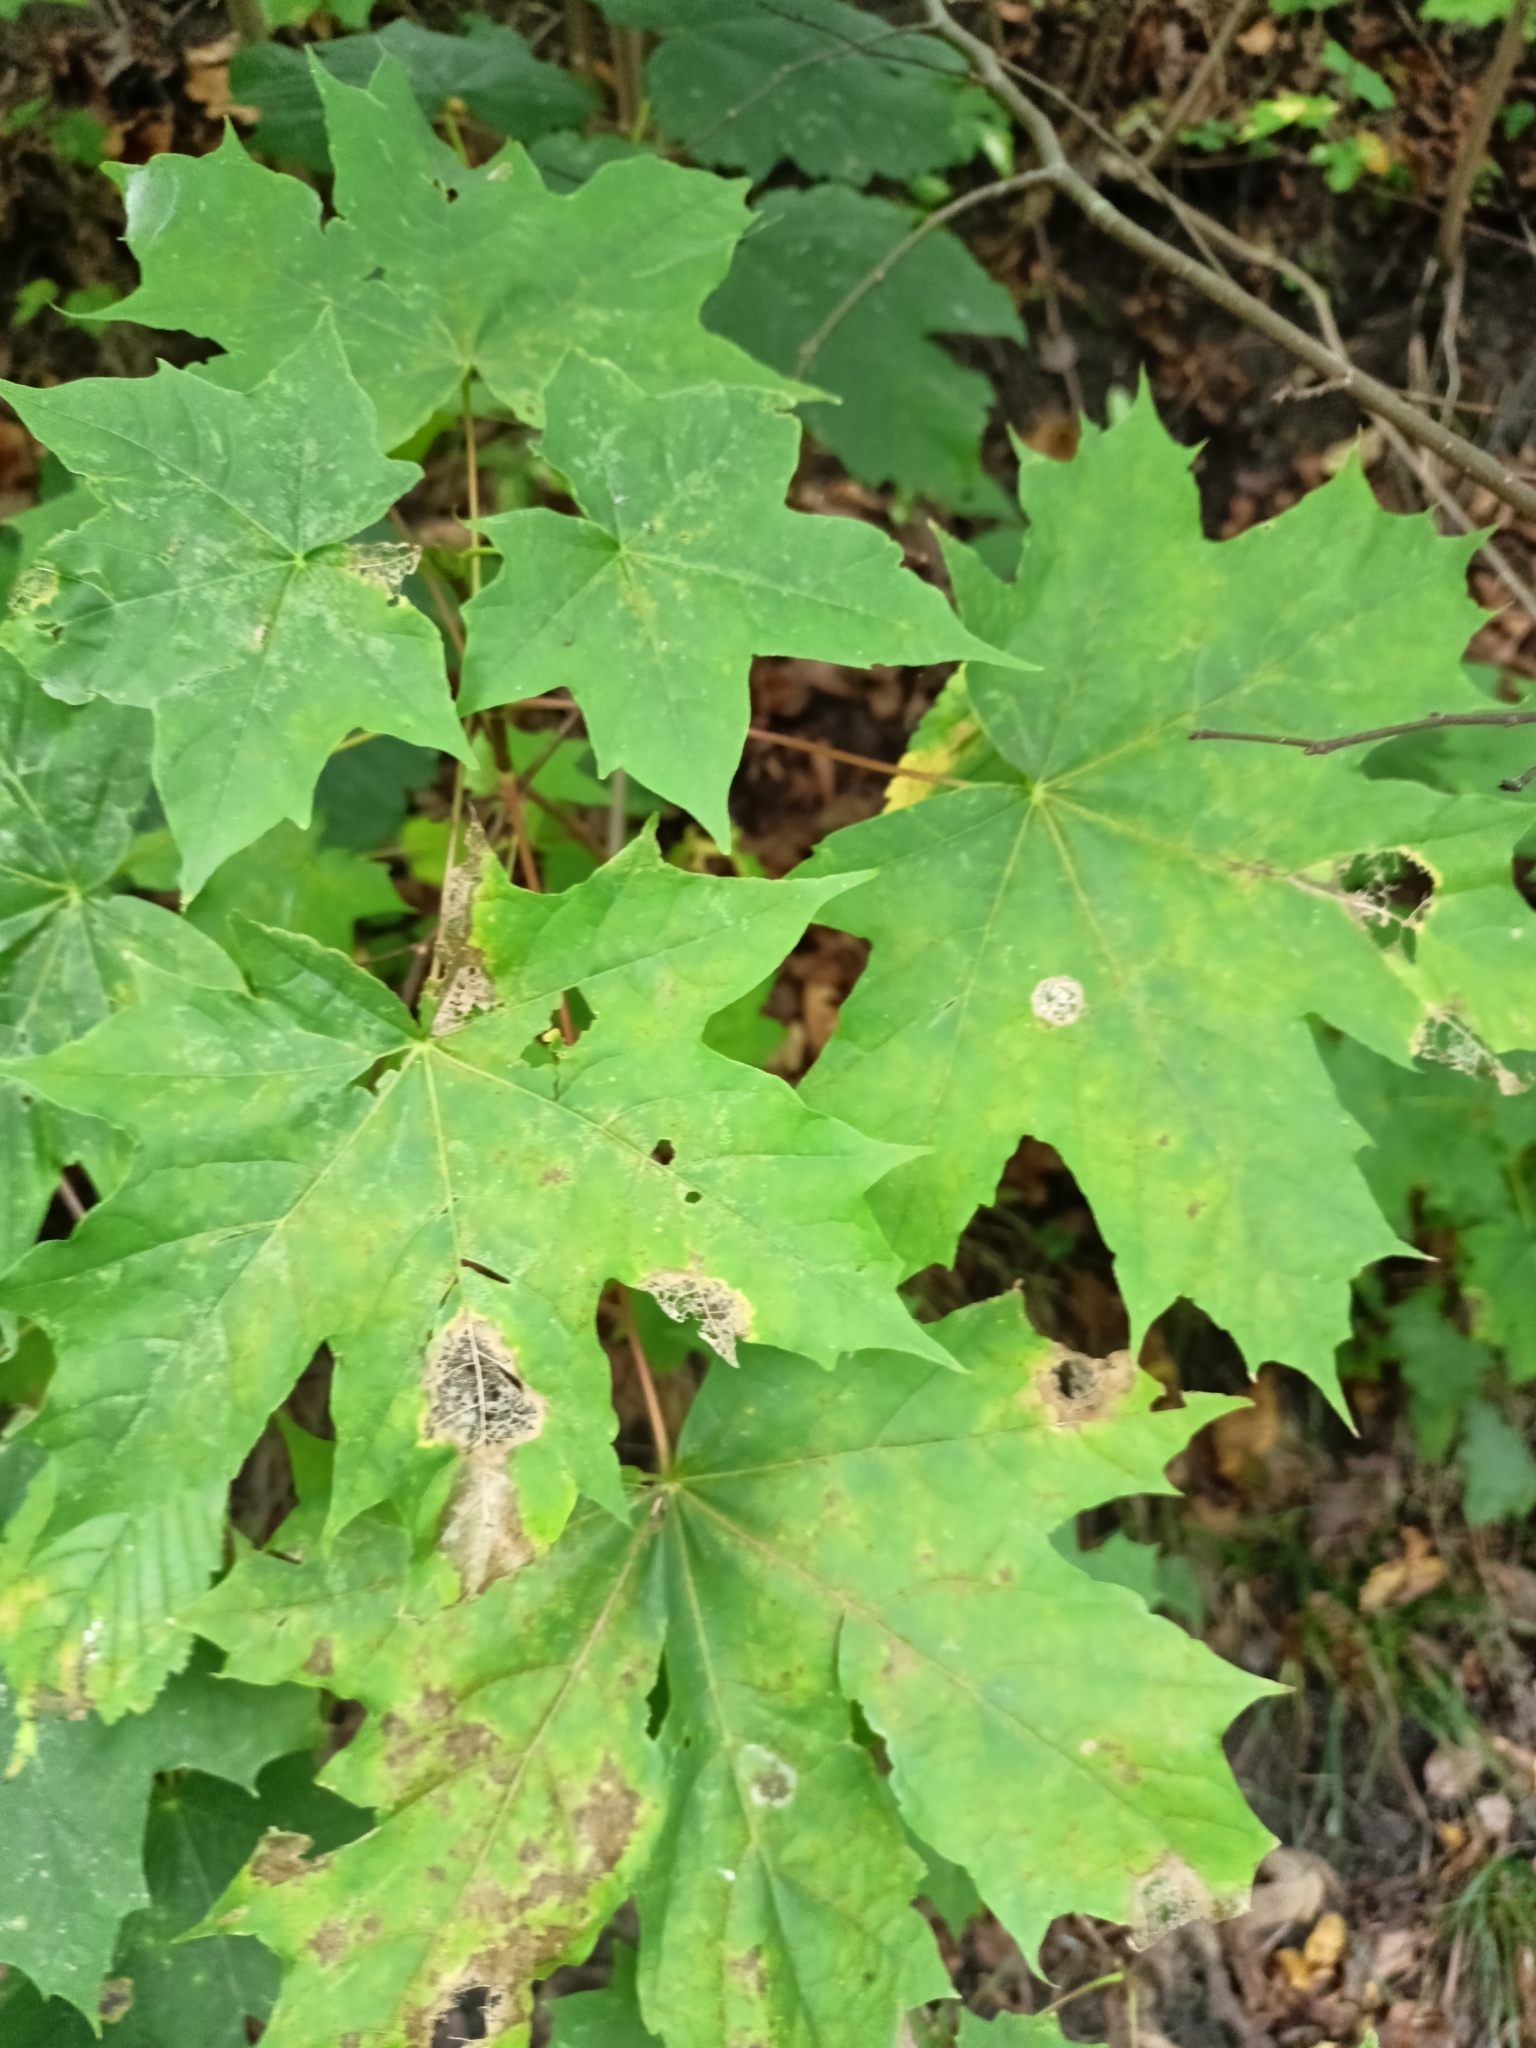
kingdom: Plantae
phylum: Tracheophyta
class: Magnoliopsida
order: Sapindales
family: Sapindaceae
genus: Acer
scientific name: Acer platanoides
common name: Norway maple
